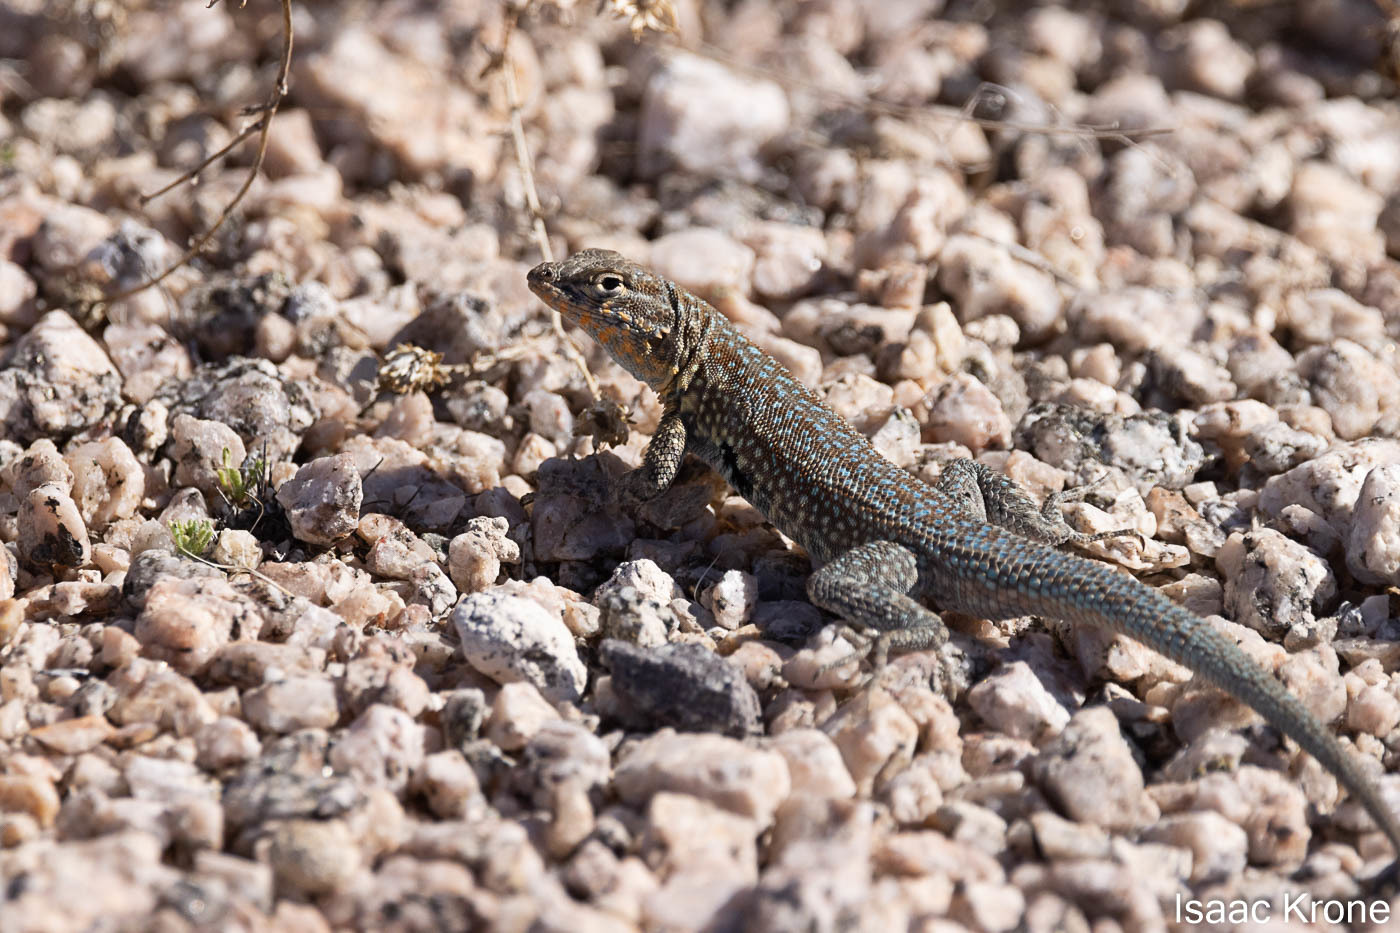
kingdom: Animalia
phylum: Chordata
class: Squamata
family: Phrynosomatidae
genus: Uta
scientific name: Uta stansburiana
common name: Side-blotched lizard
